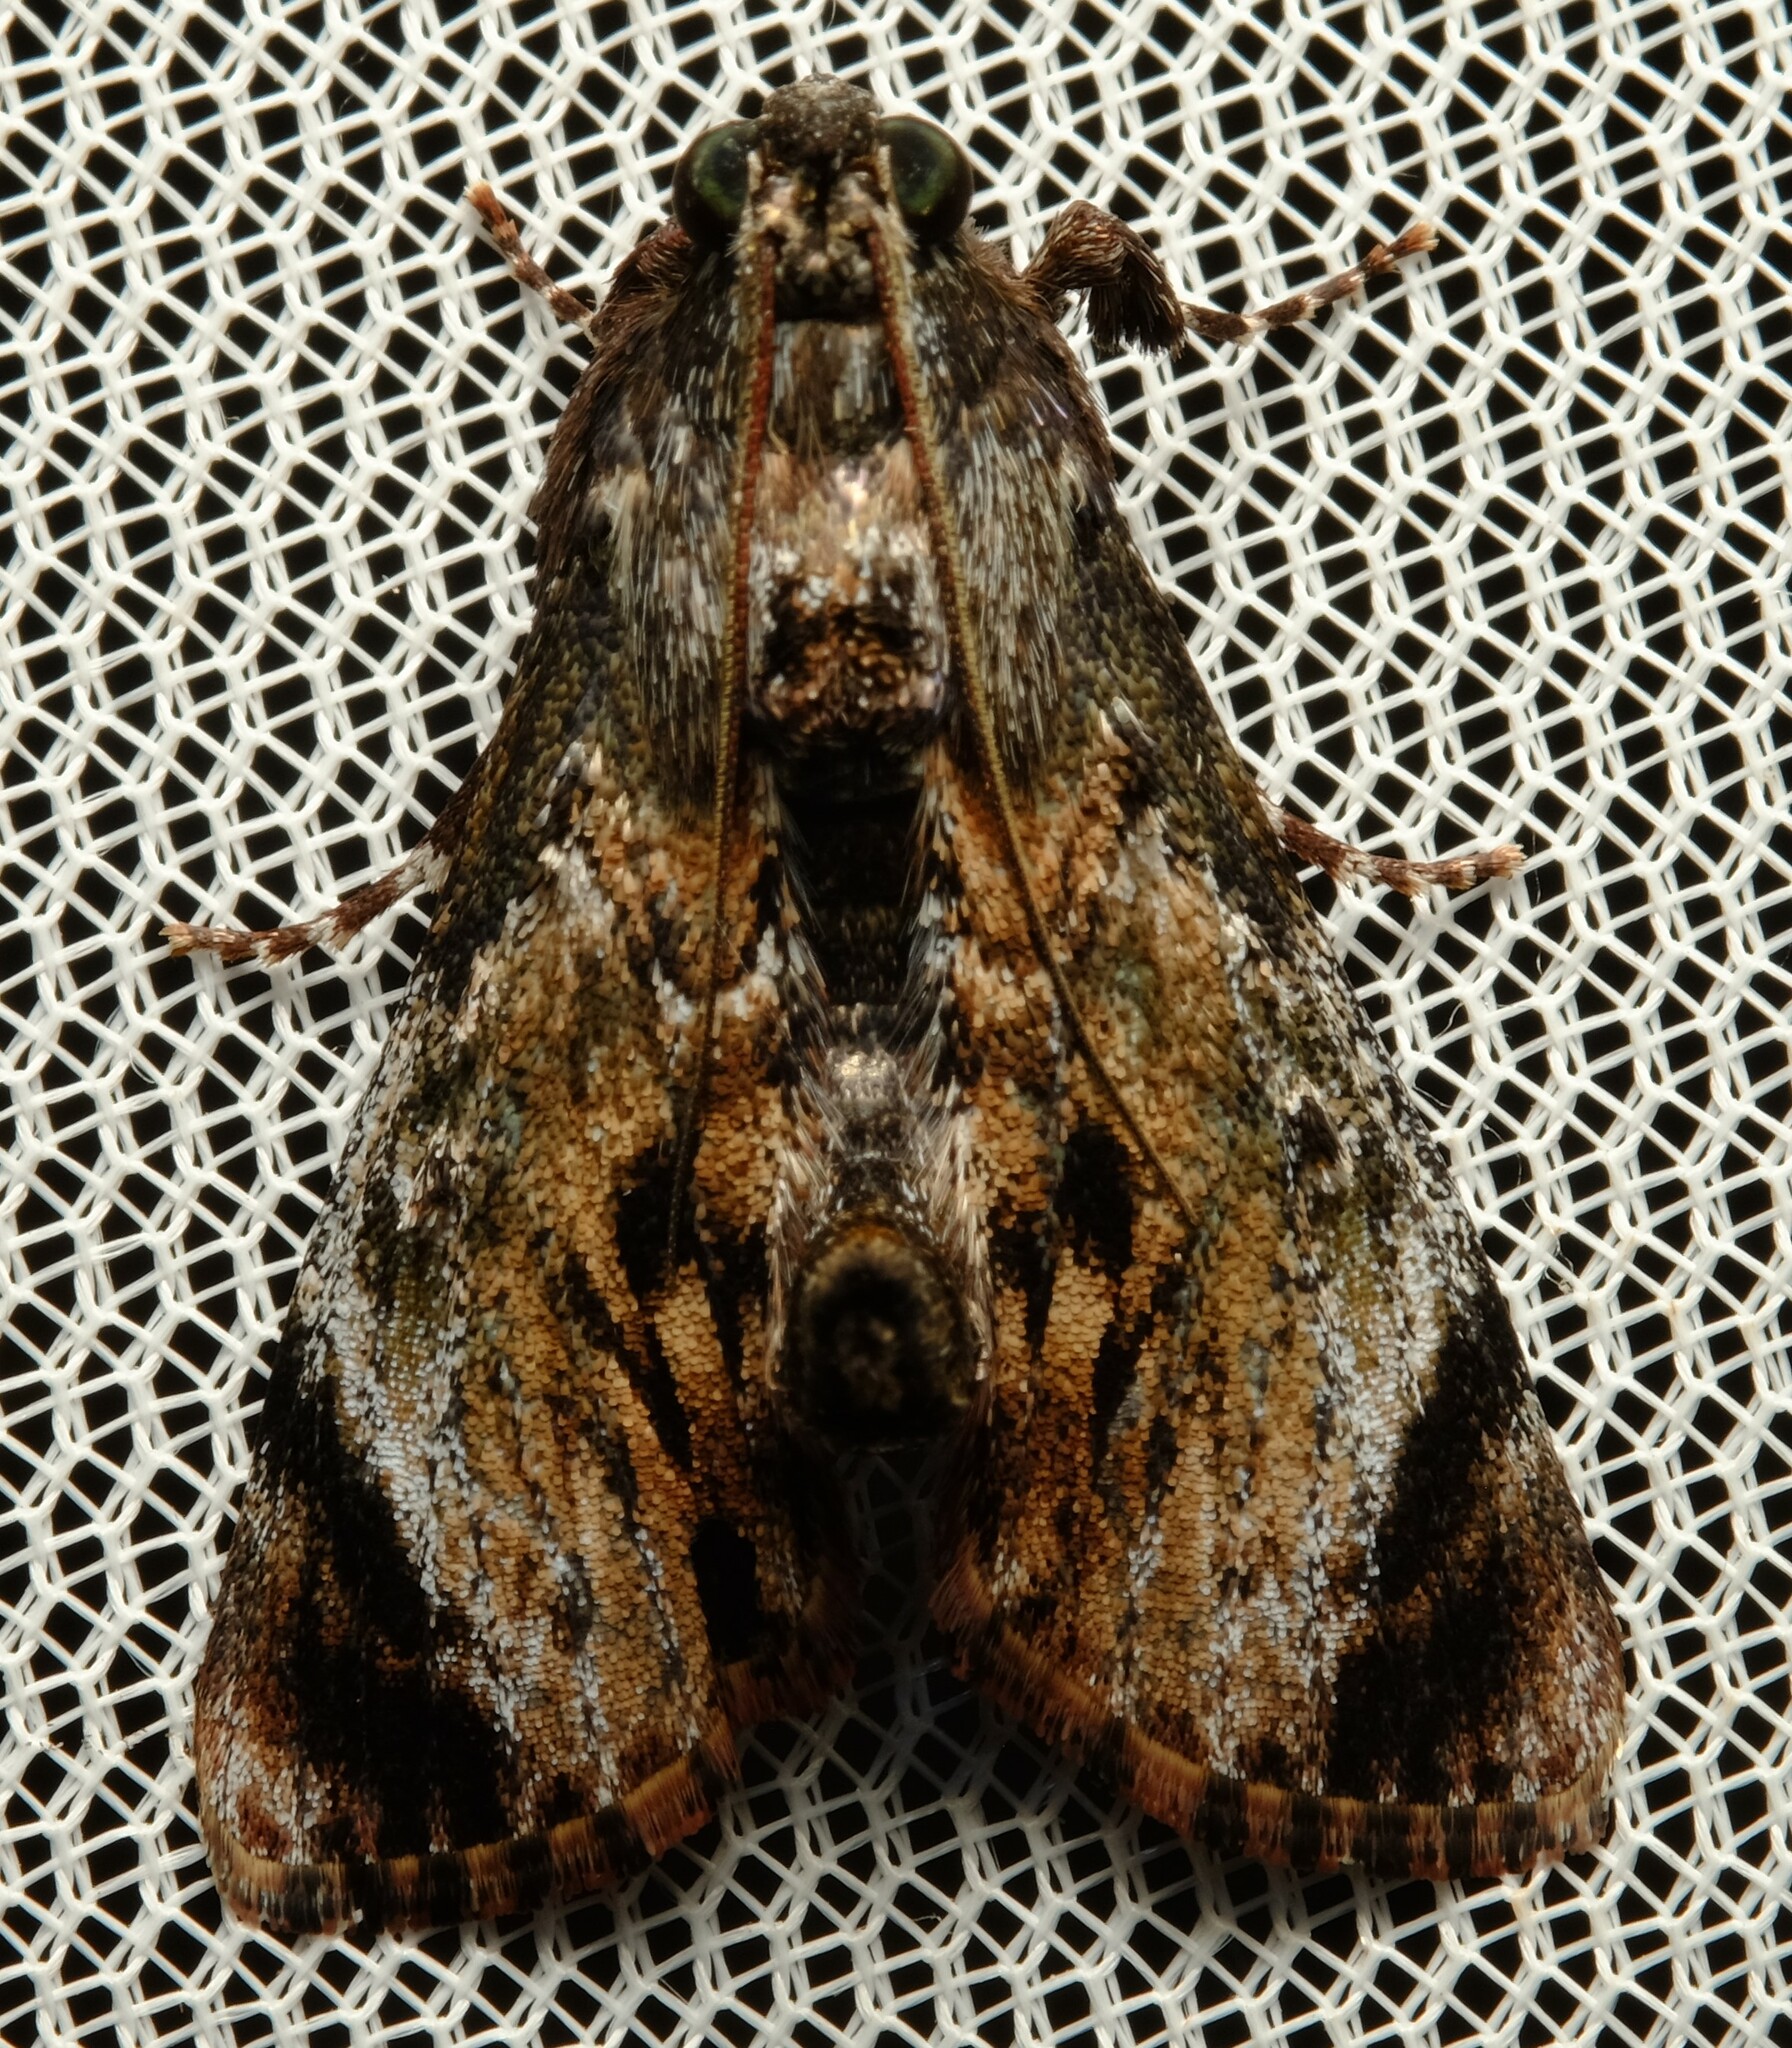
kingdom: Animalia
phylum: Arthropoda
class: Insecta
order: Lepidoptera
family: Pyralidae
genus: Salma
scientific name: Salma pyrastis
